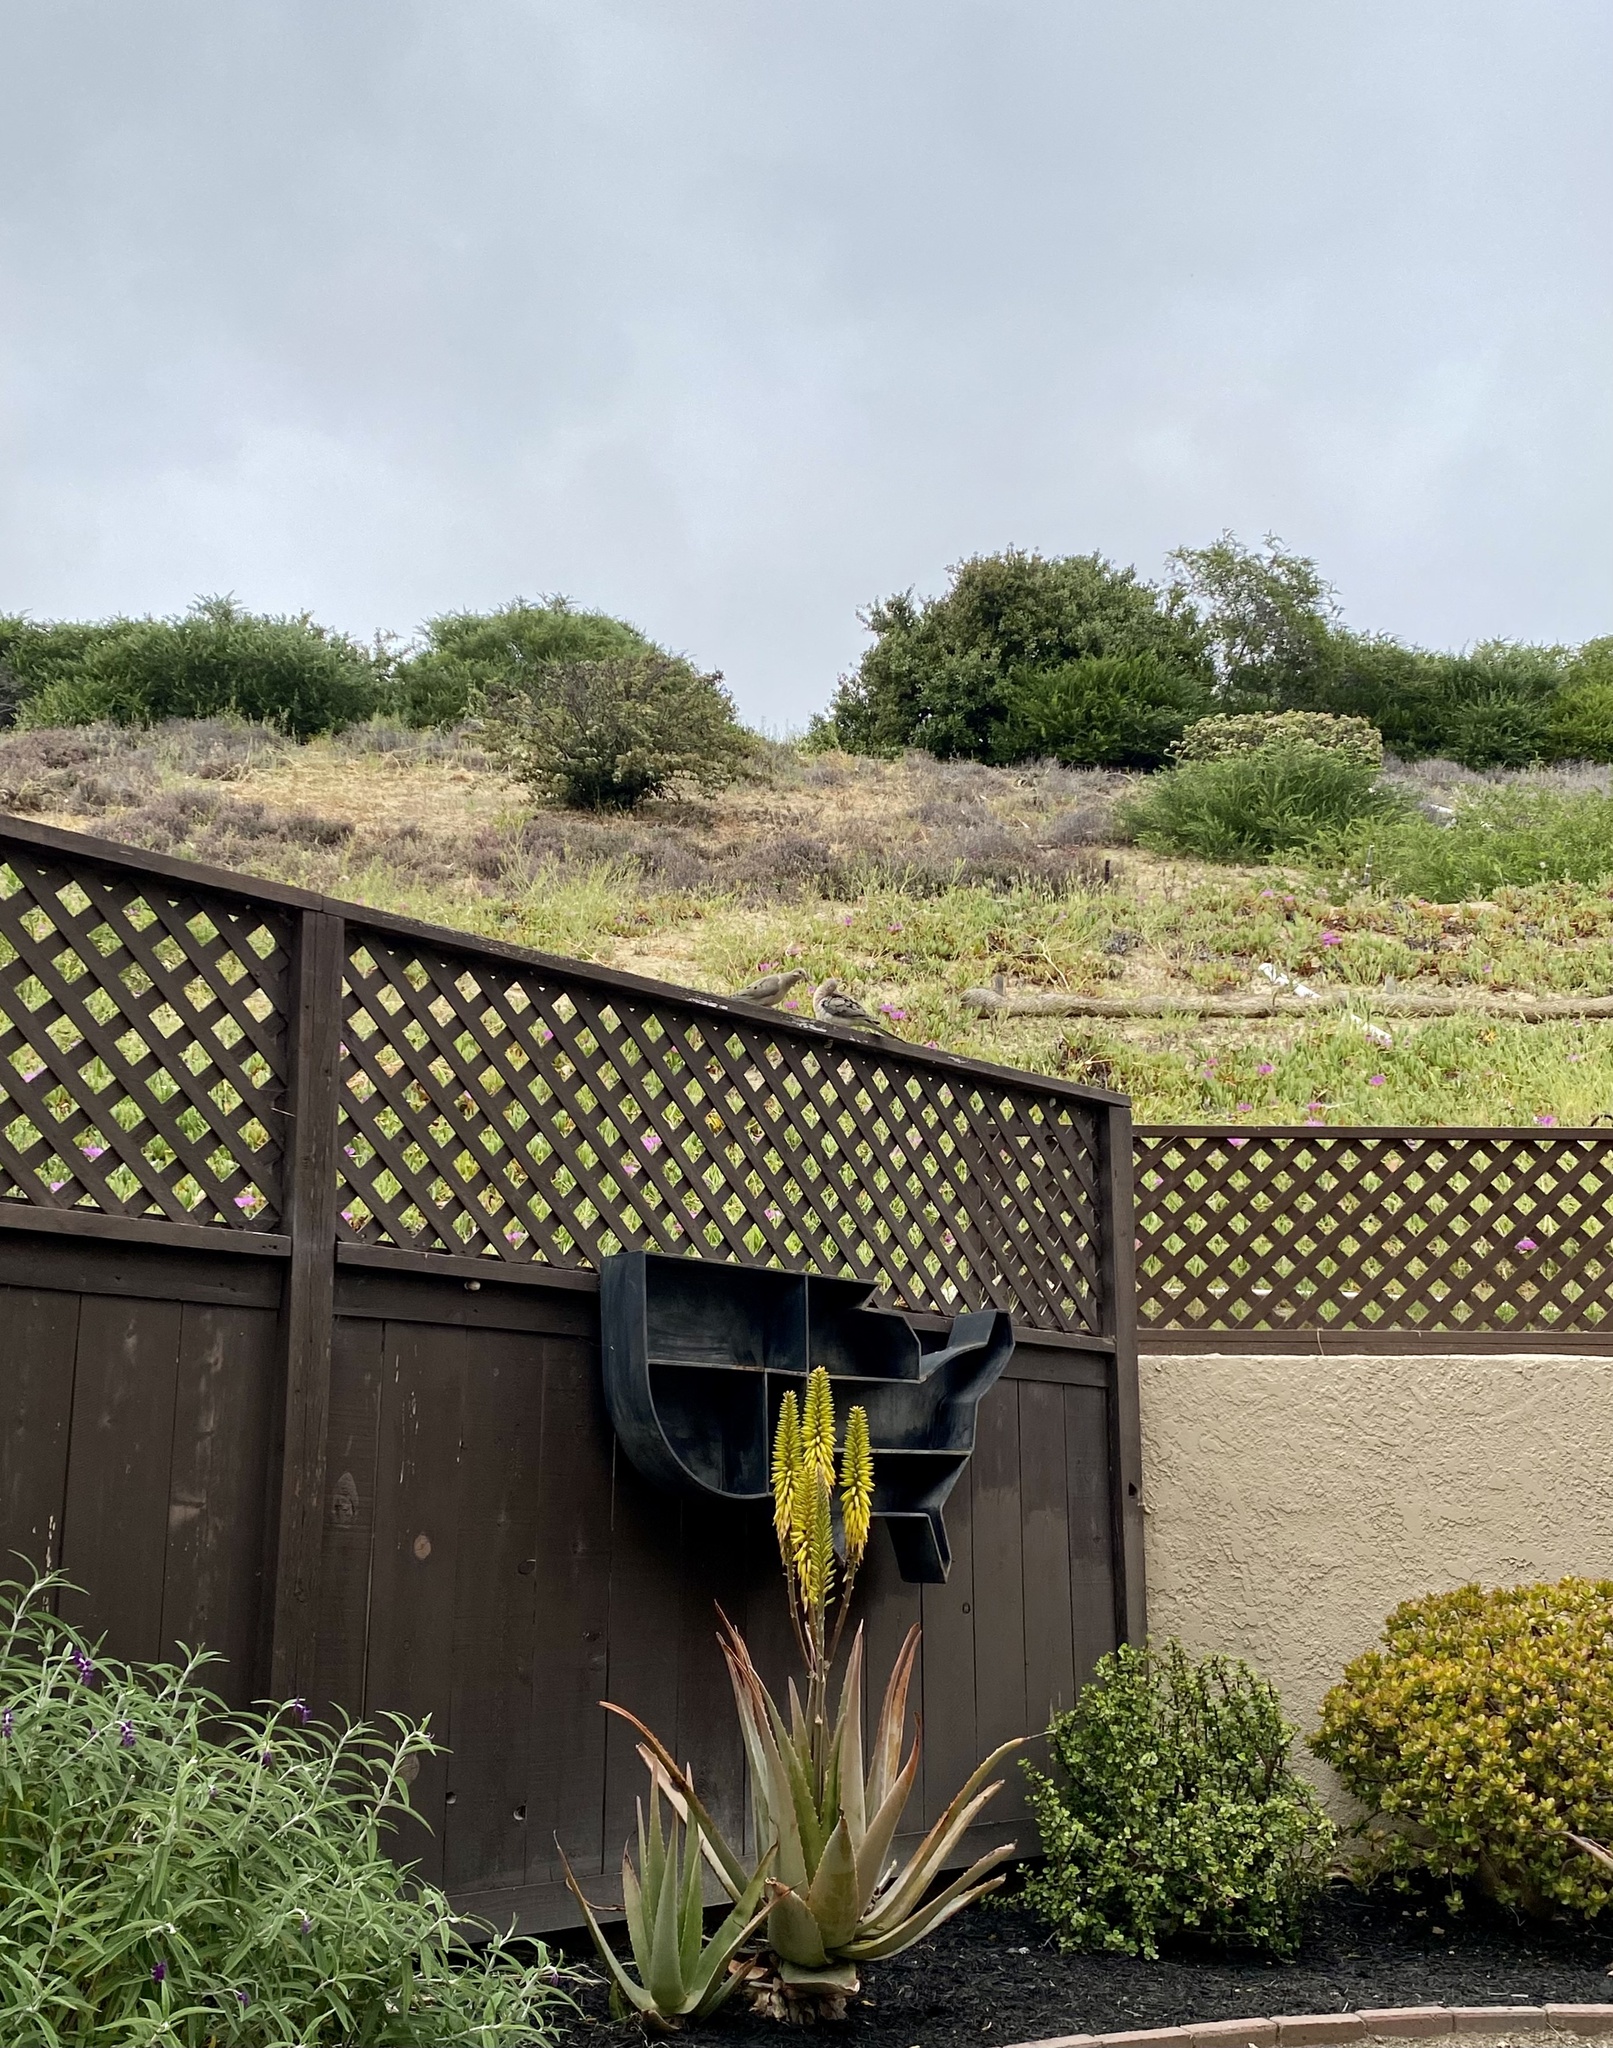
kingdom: Animalia
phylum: Chordata
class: Aves
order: Columbiformes
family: Columbidae
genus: Zenaida
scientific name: Zenaida macroura
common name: Mourning dove
